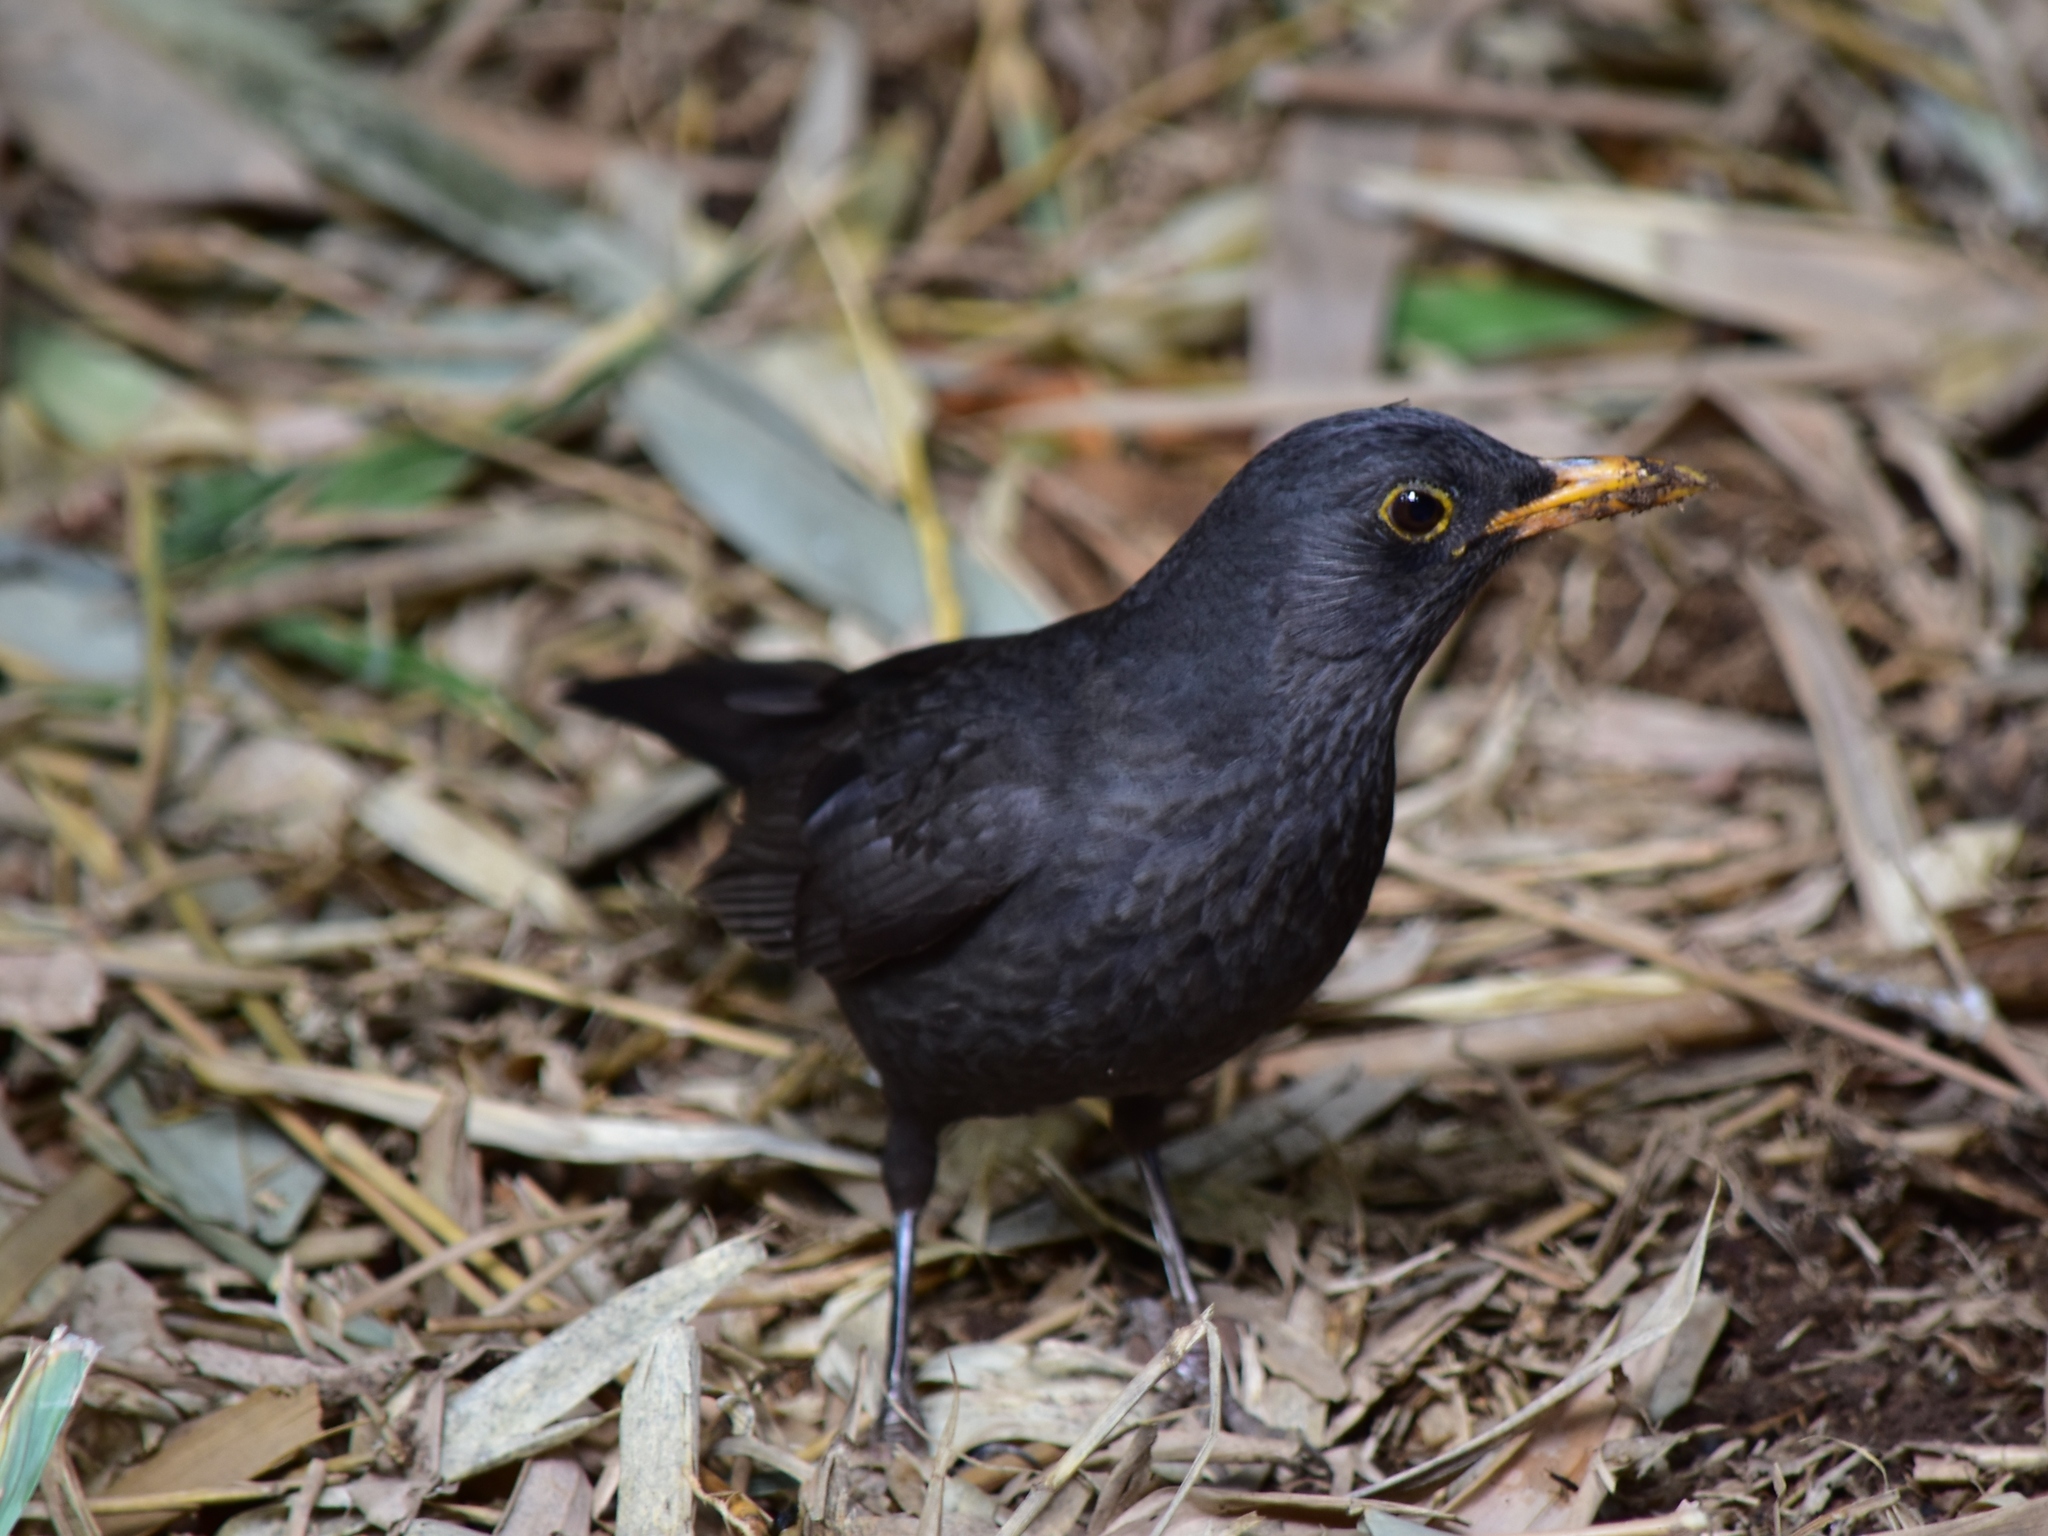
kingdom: Animalia
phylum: Chordata
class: Aves
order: Passeriformes
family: Turdidae
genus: Turdus
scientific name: Turdus merula
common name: Common blackbird
